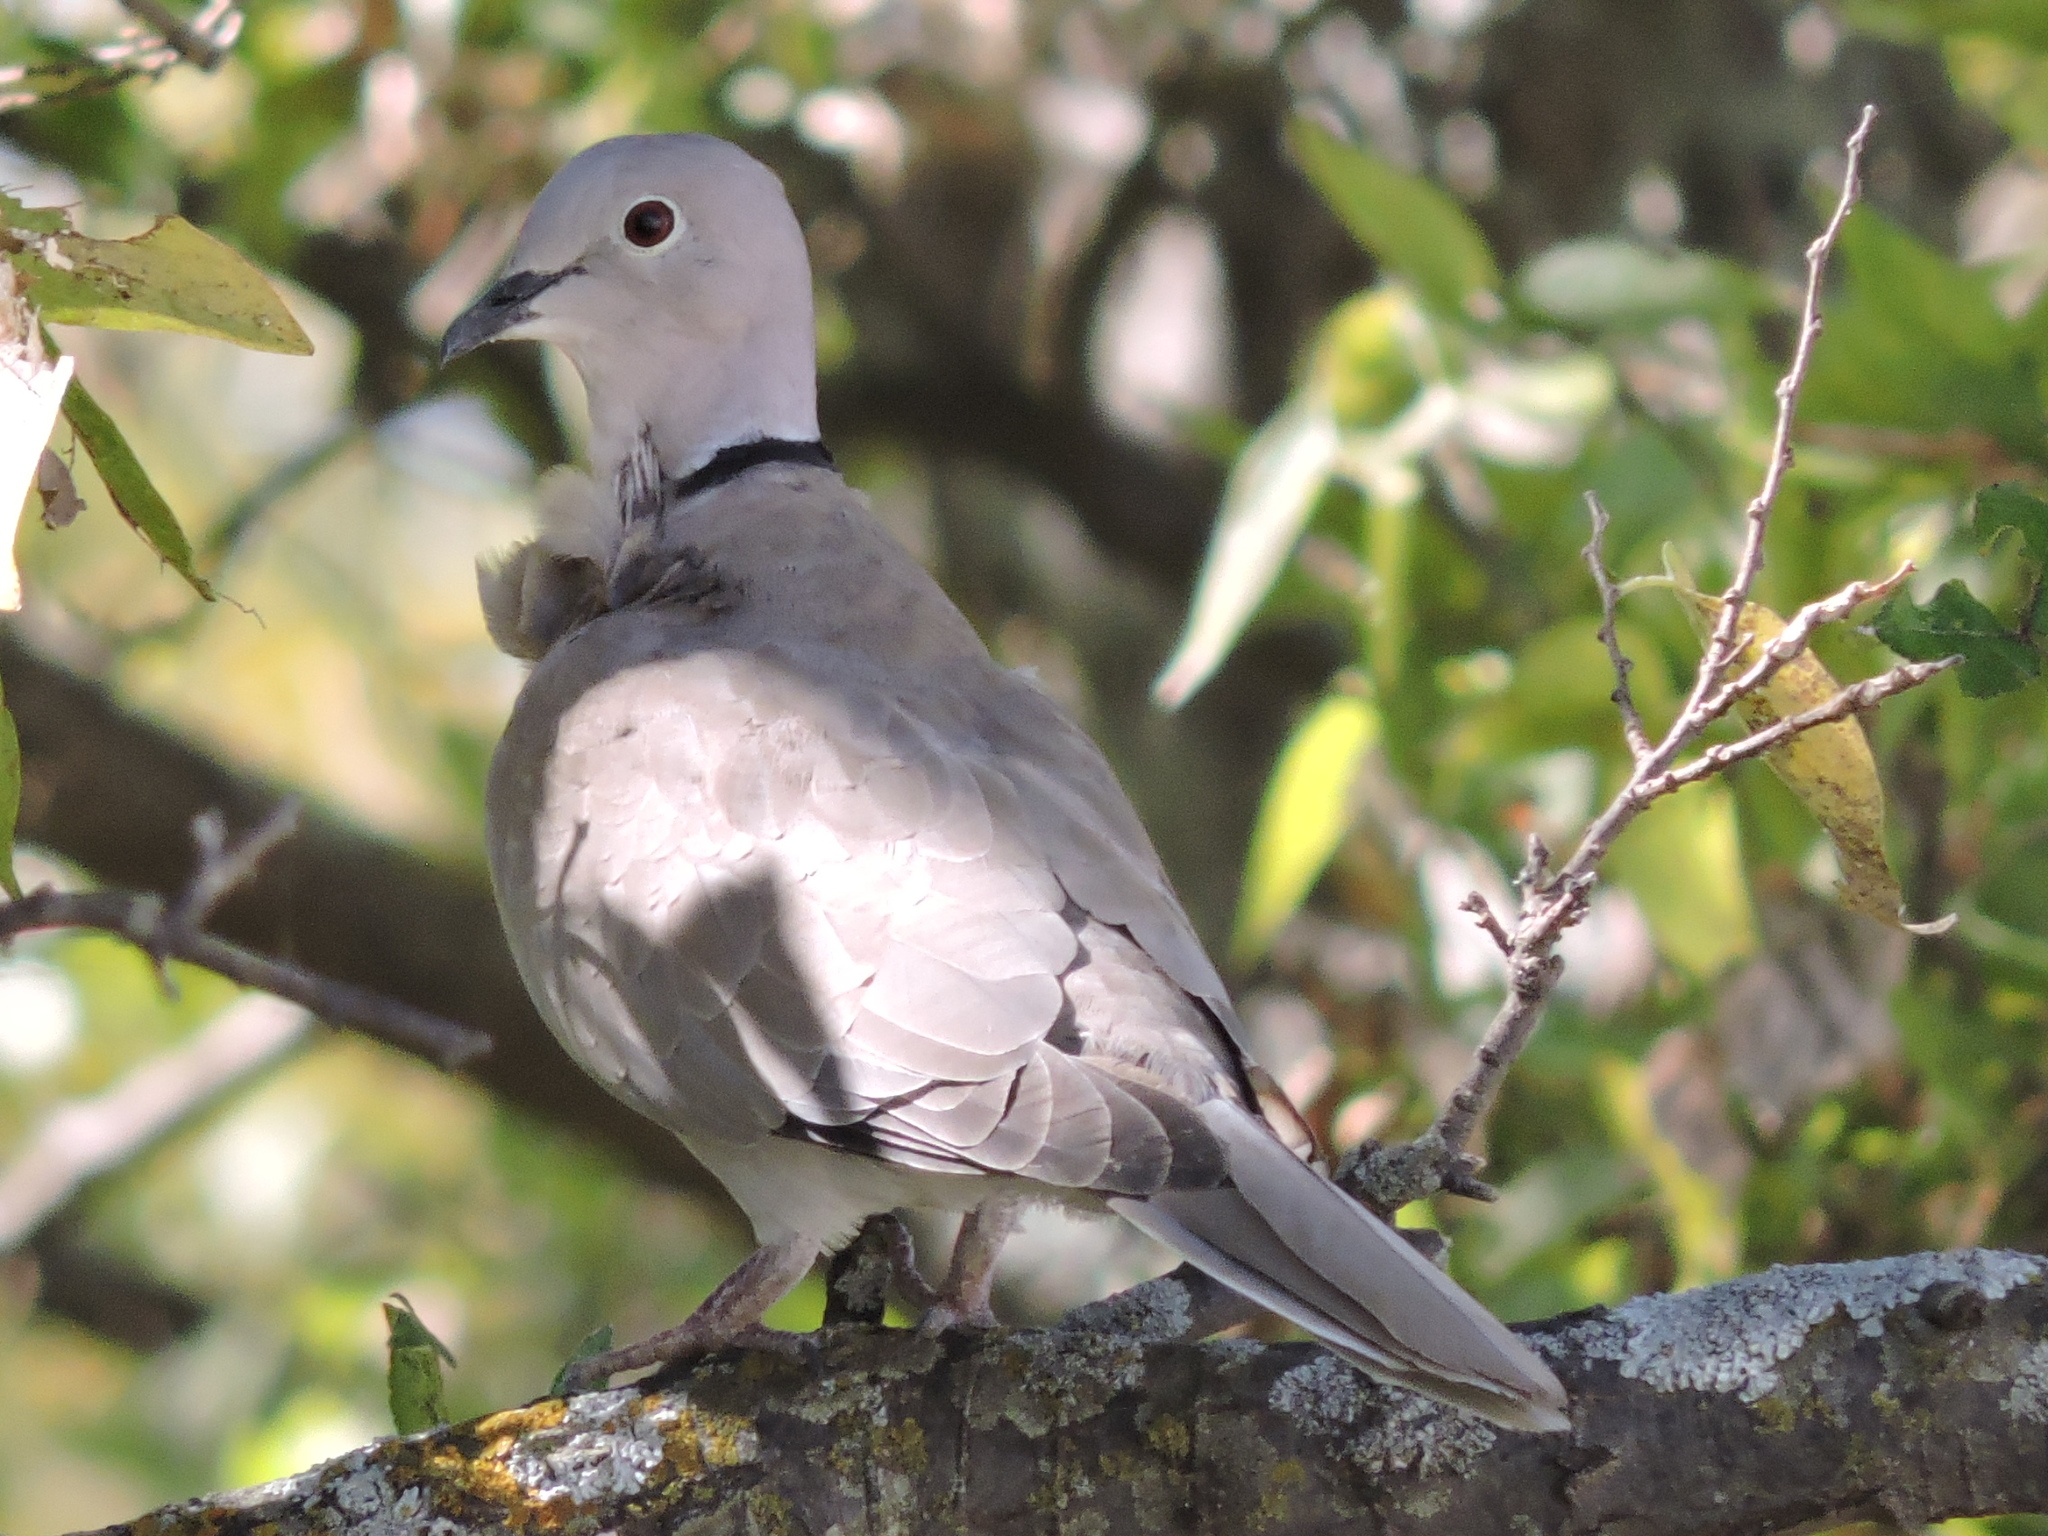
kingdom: Animalia
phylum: Chordata
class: Aves
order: Columbiformes
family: Columbidae
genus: Streptopelia
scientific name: Streptopelia decaocto
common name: Eurasian collared dove
